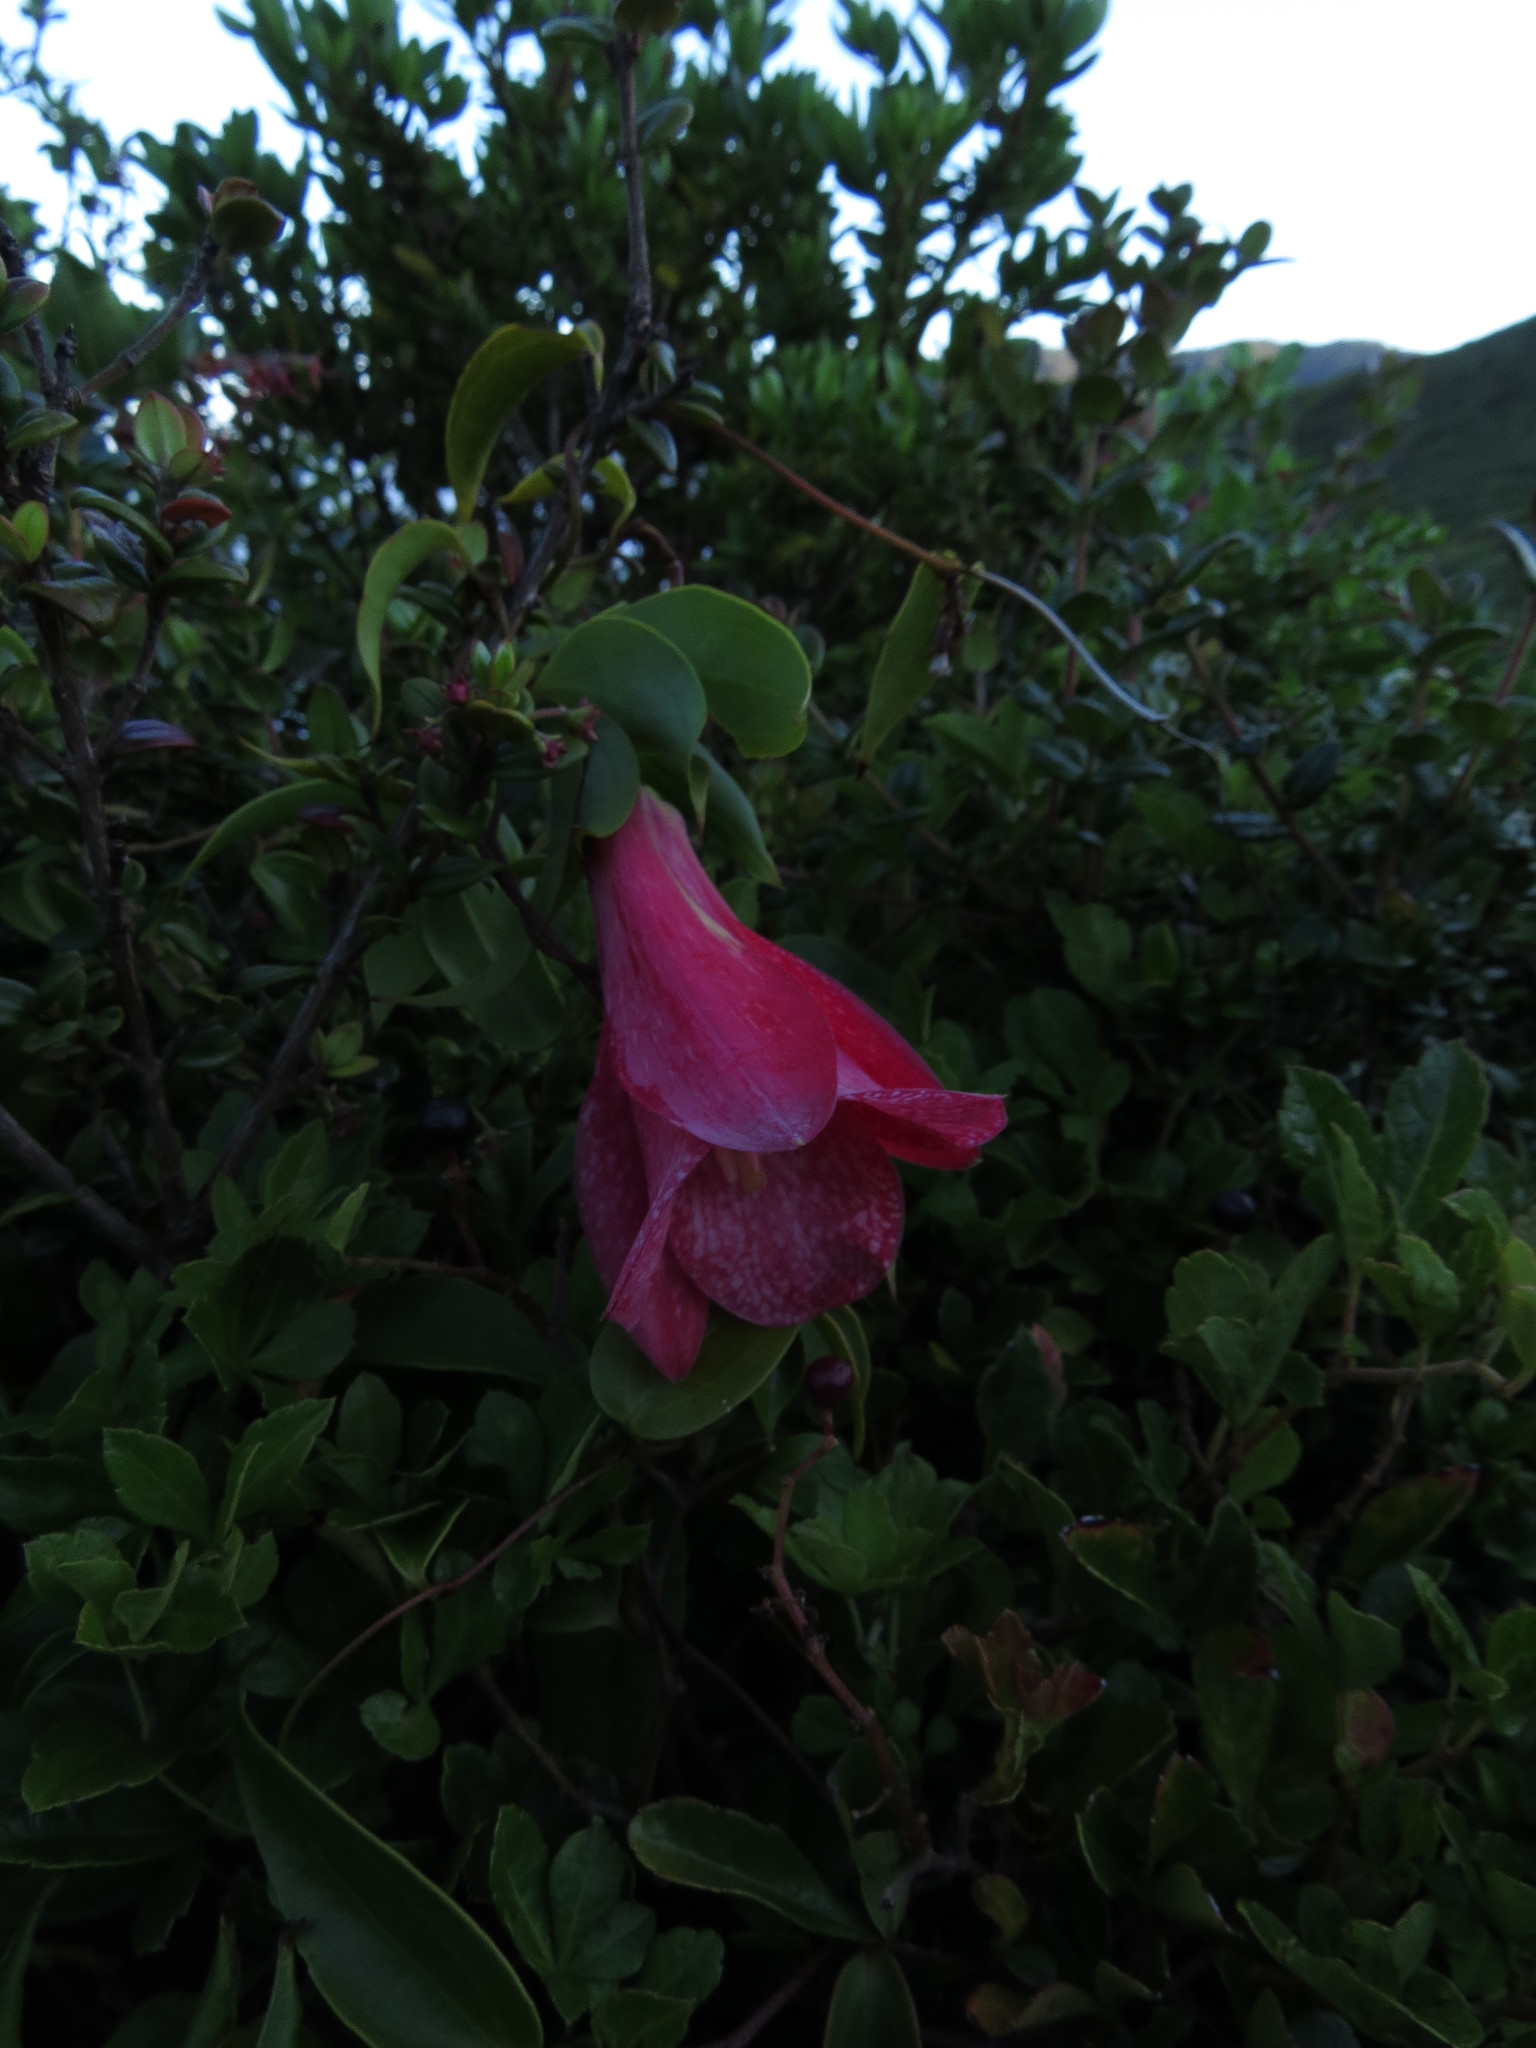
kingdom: Plantae
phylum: Tracheophyta
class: Liliopsida
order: Liliales
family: Philesiaceae
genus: Lapageria
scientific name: Lapageria rosea
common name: Chilean-bellflower
